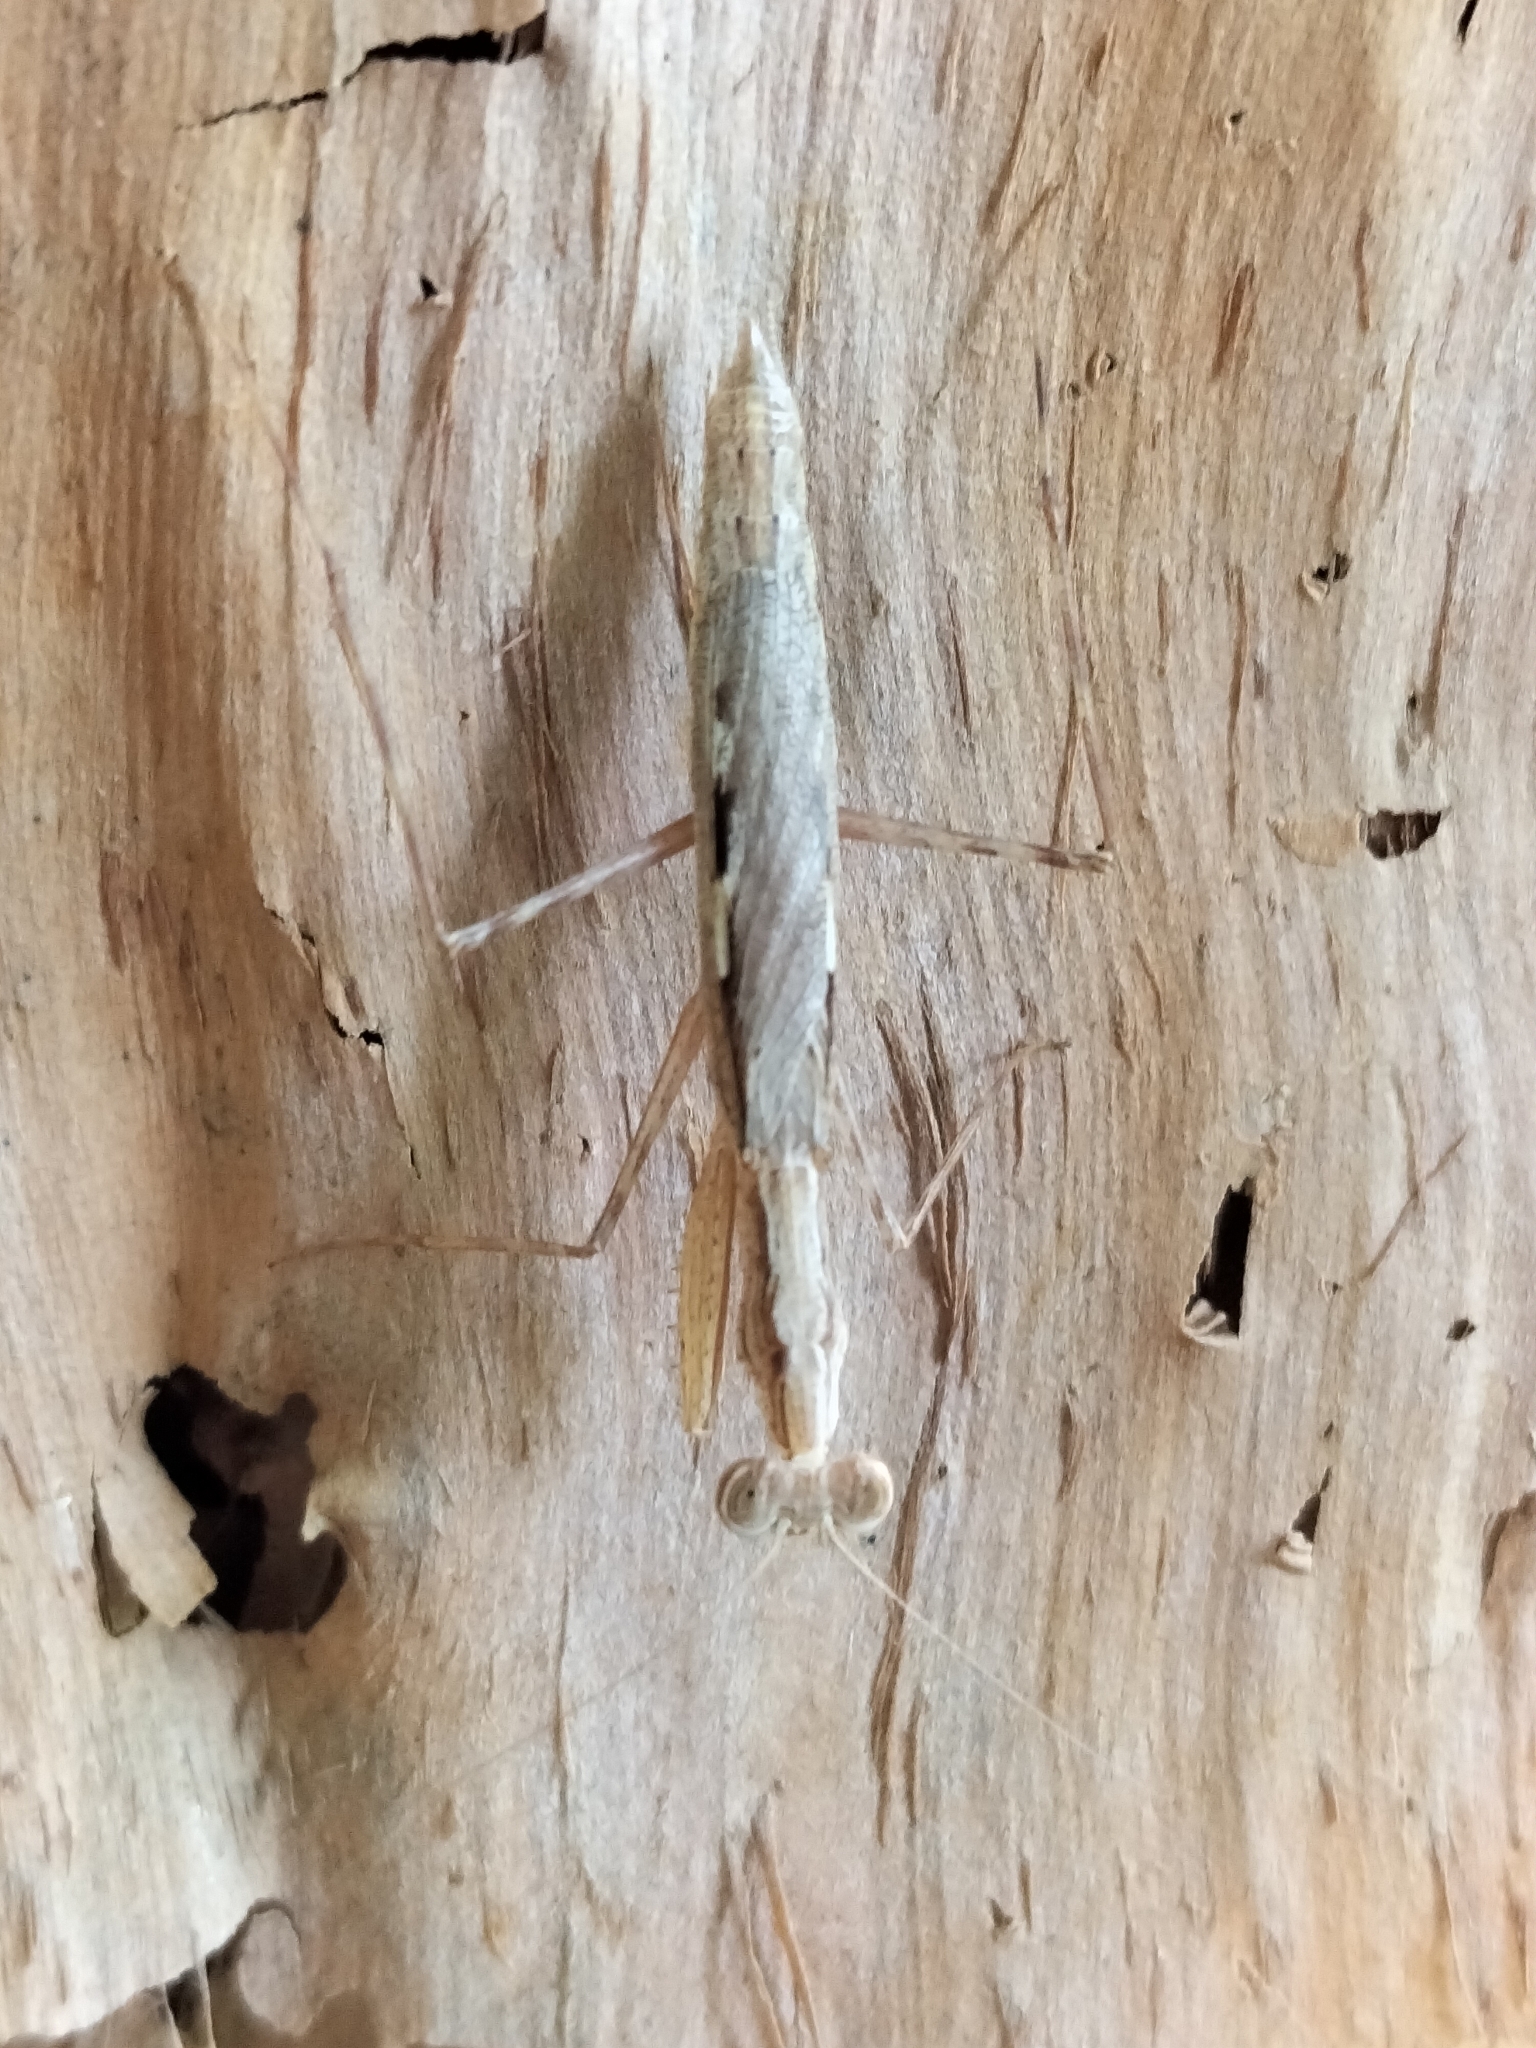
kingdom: Animalia
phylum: Arthropoda
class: Insecta
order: Mantodea
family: Nanomantidae
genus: Ima
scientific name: Ima fusca
